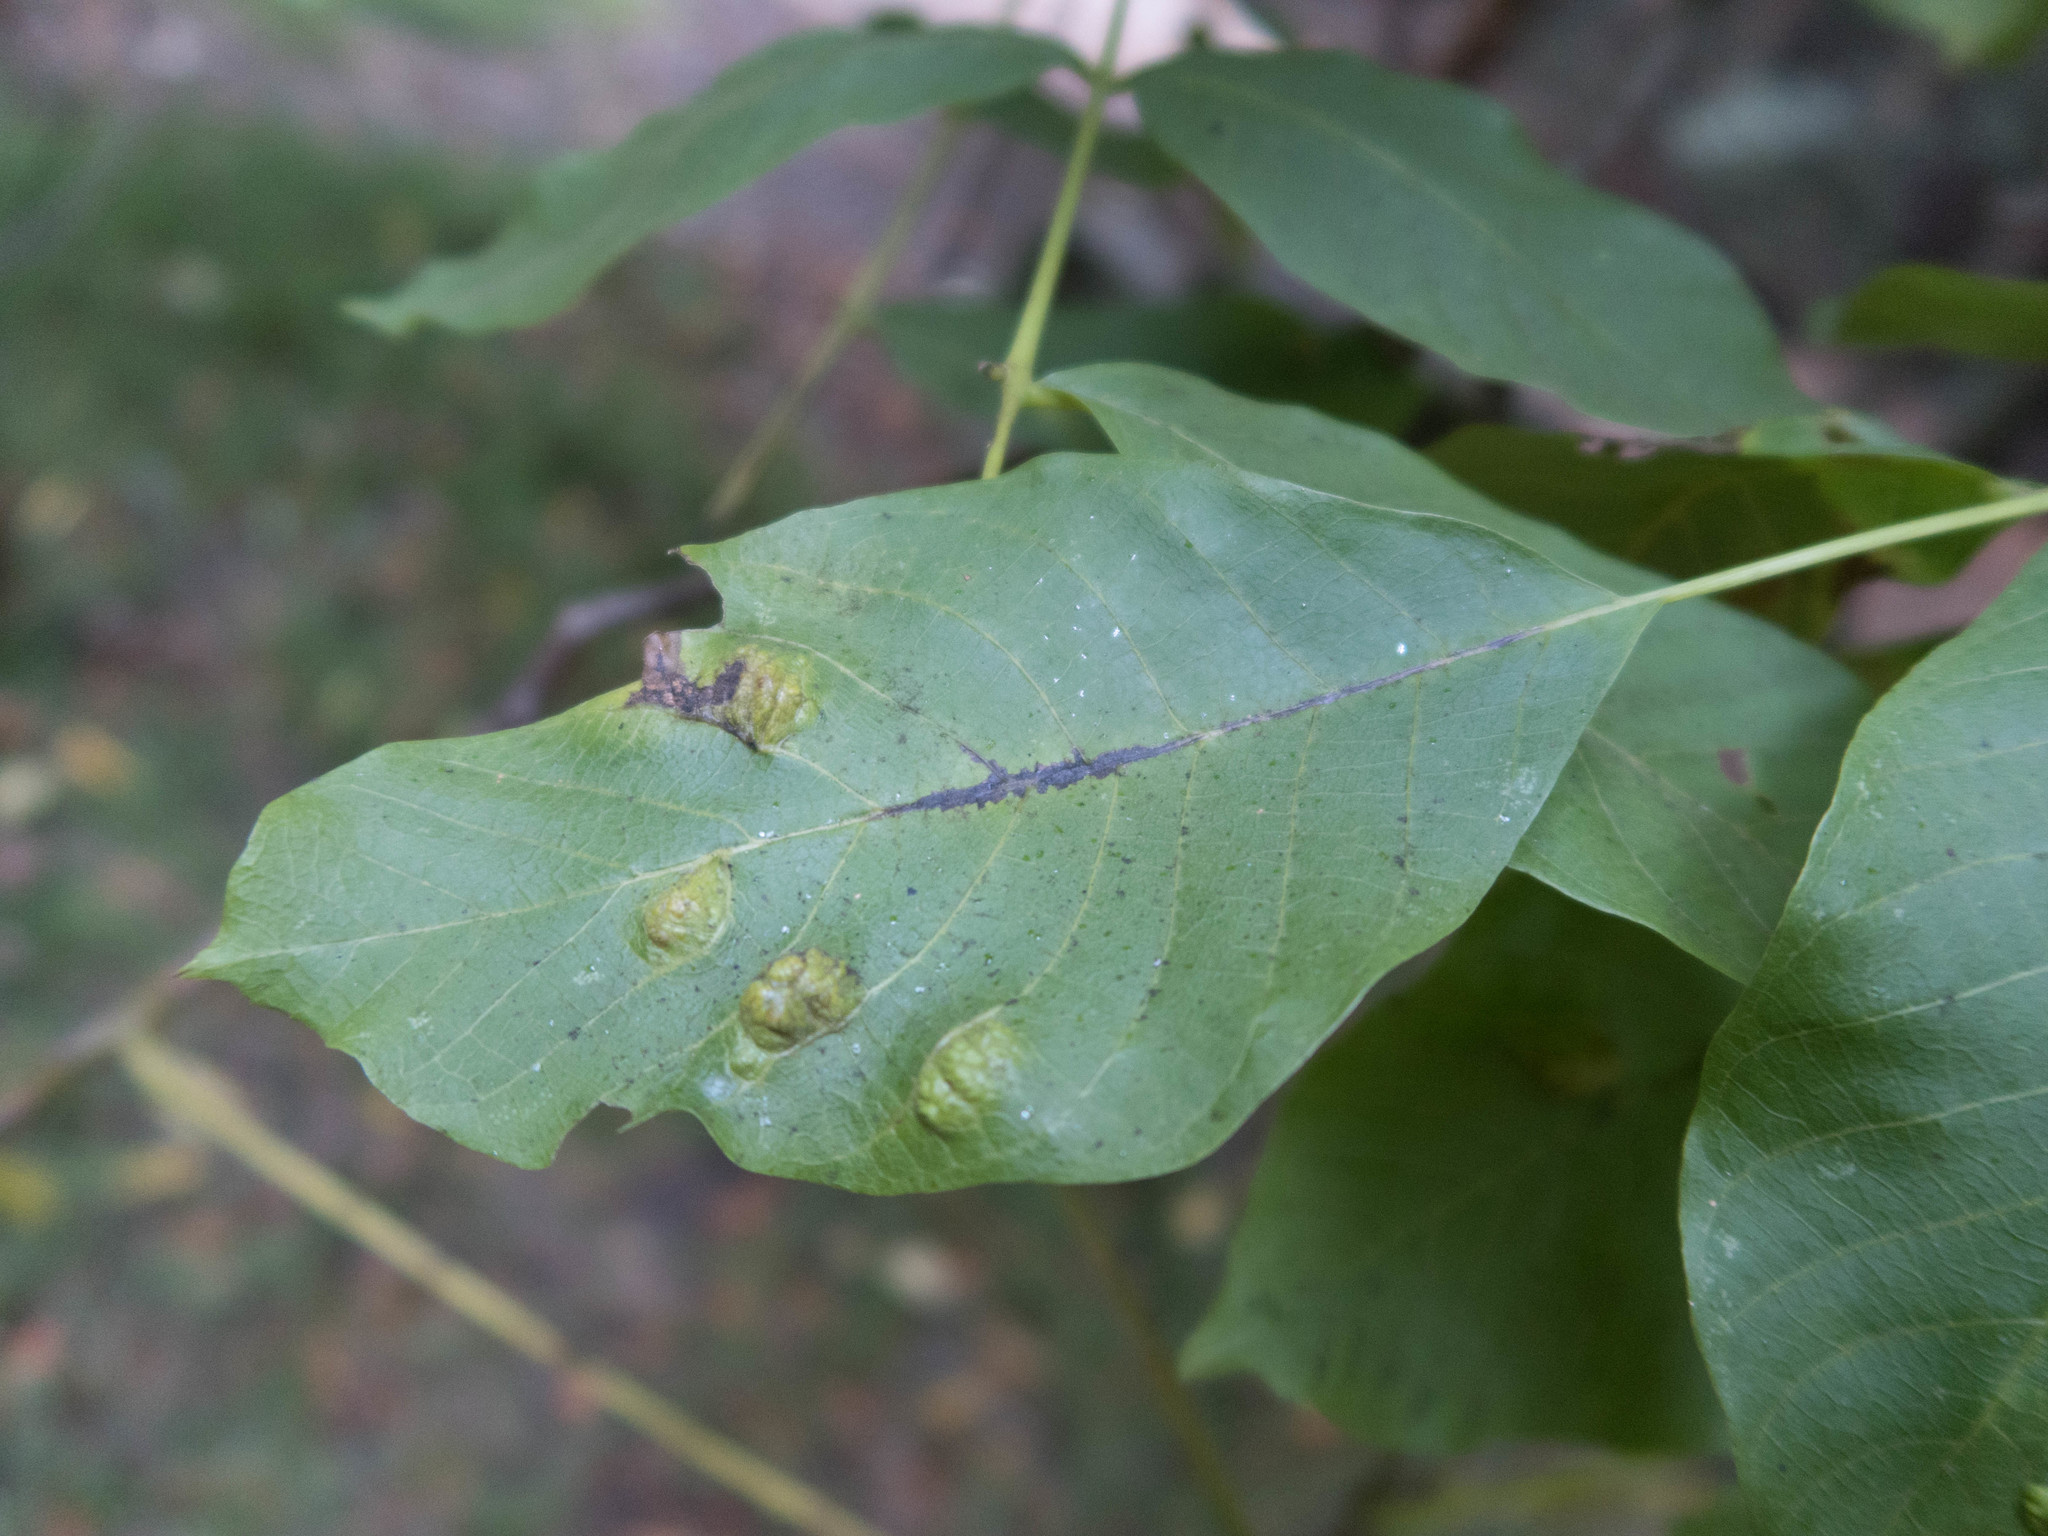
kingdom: Animalia
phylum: Arthropoda
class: Arachnida
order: Trombidiformes
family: Eriophyidae
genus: Aceria
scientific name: Aceria erinea
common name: Persian walnut erineum mite
